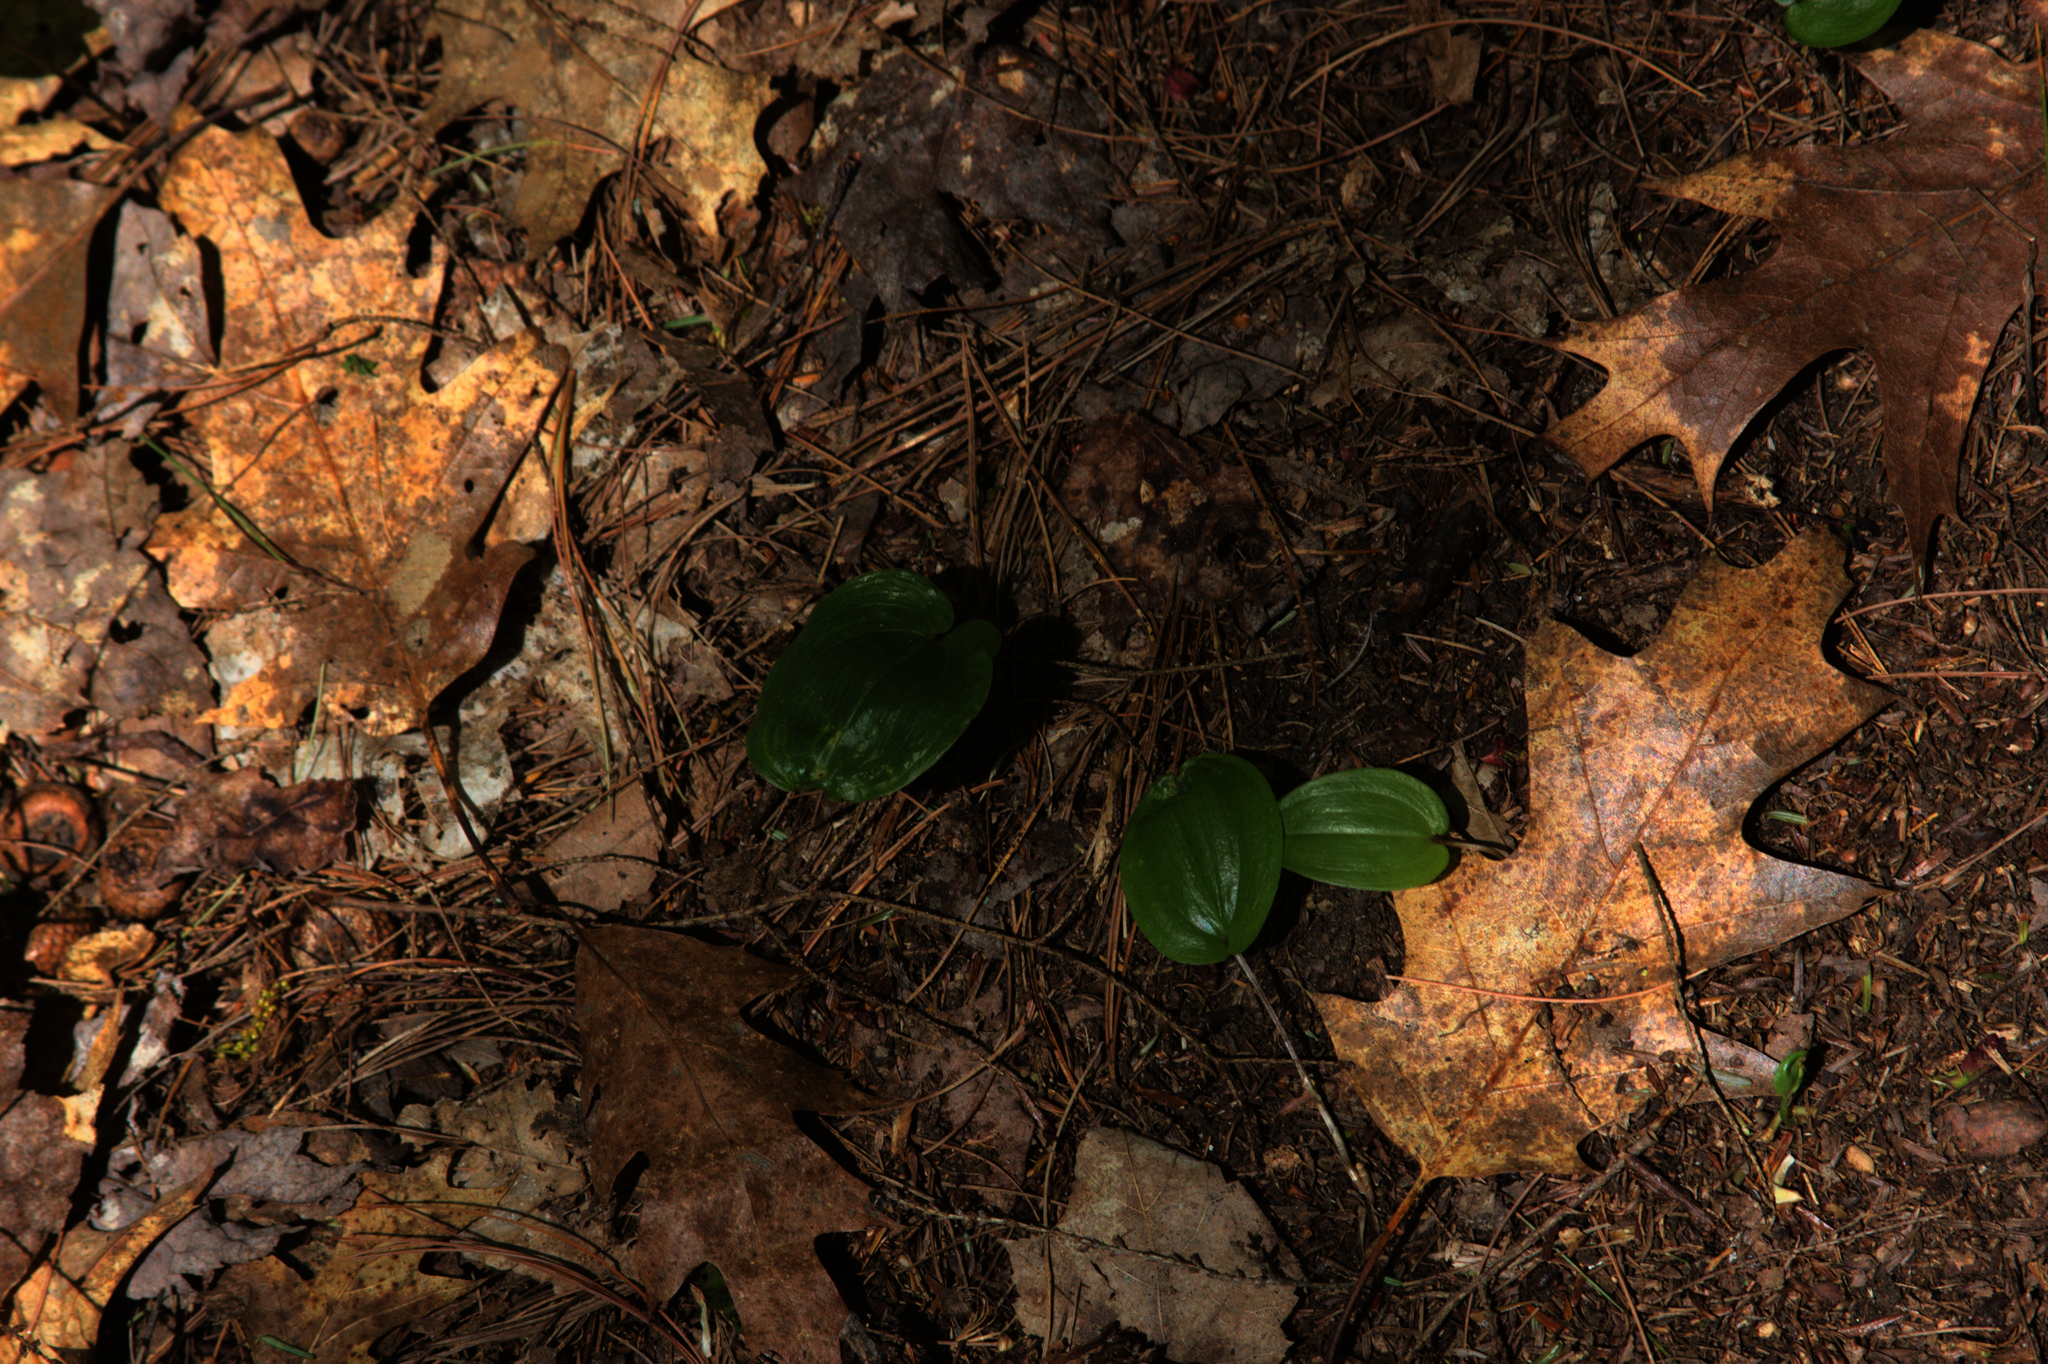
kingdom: Plantae
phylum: Tracheophyta
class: Liliopsida
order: Asparagales
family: Asparagaceae
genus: Maianthemum
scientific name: Maianthemum canadense
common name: False lily-of-the-valley
